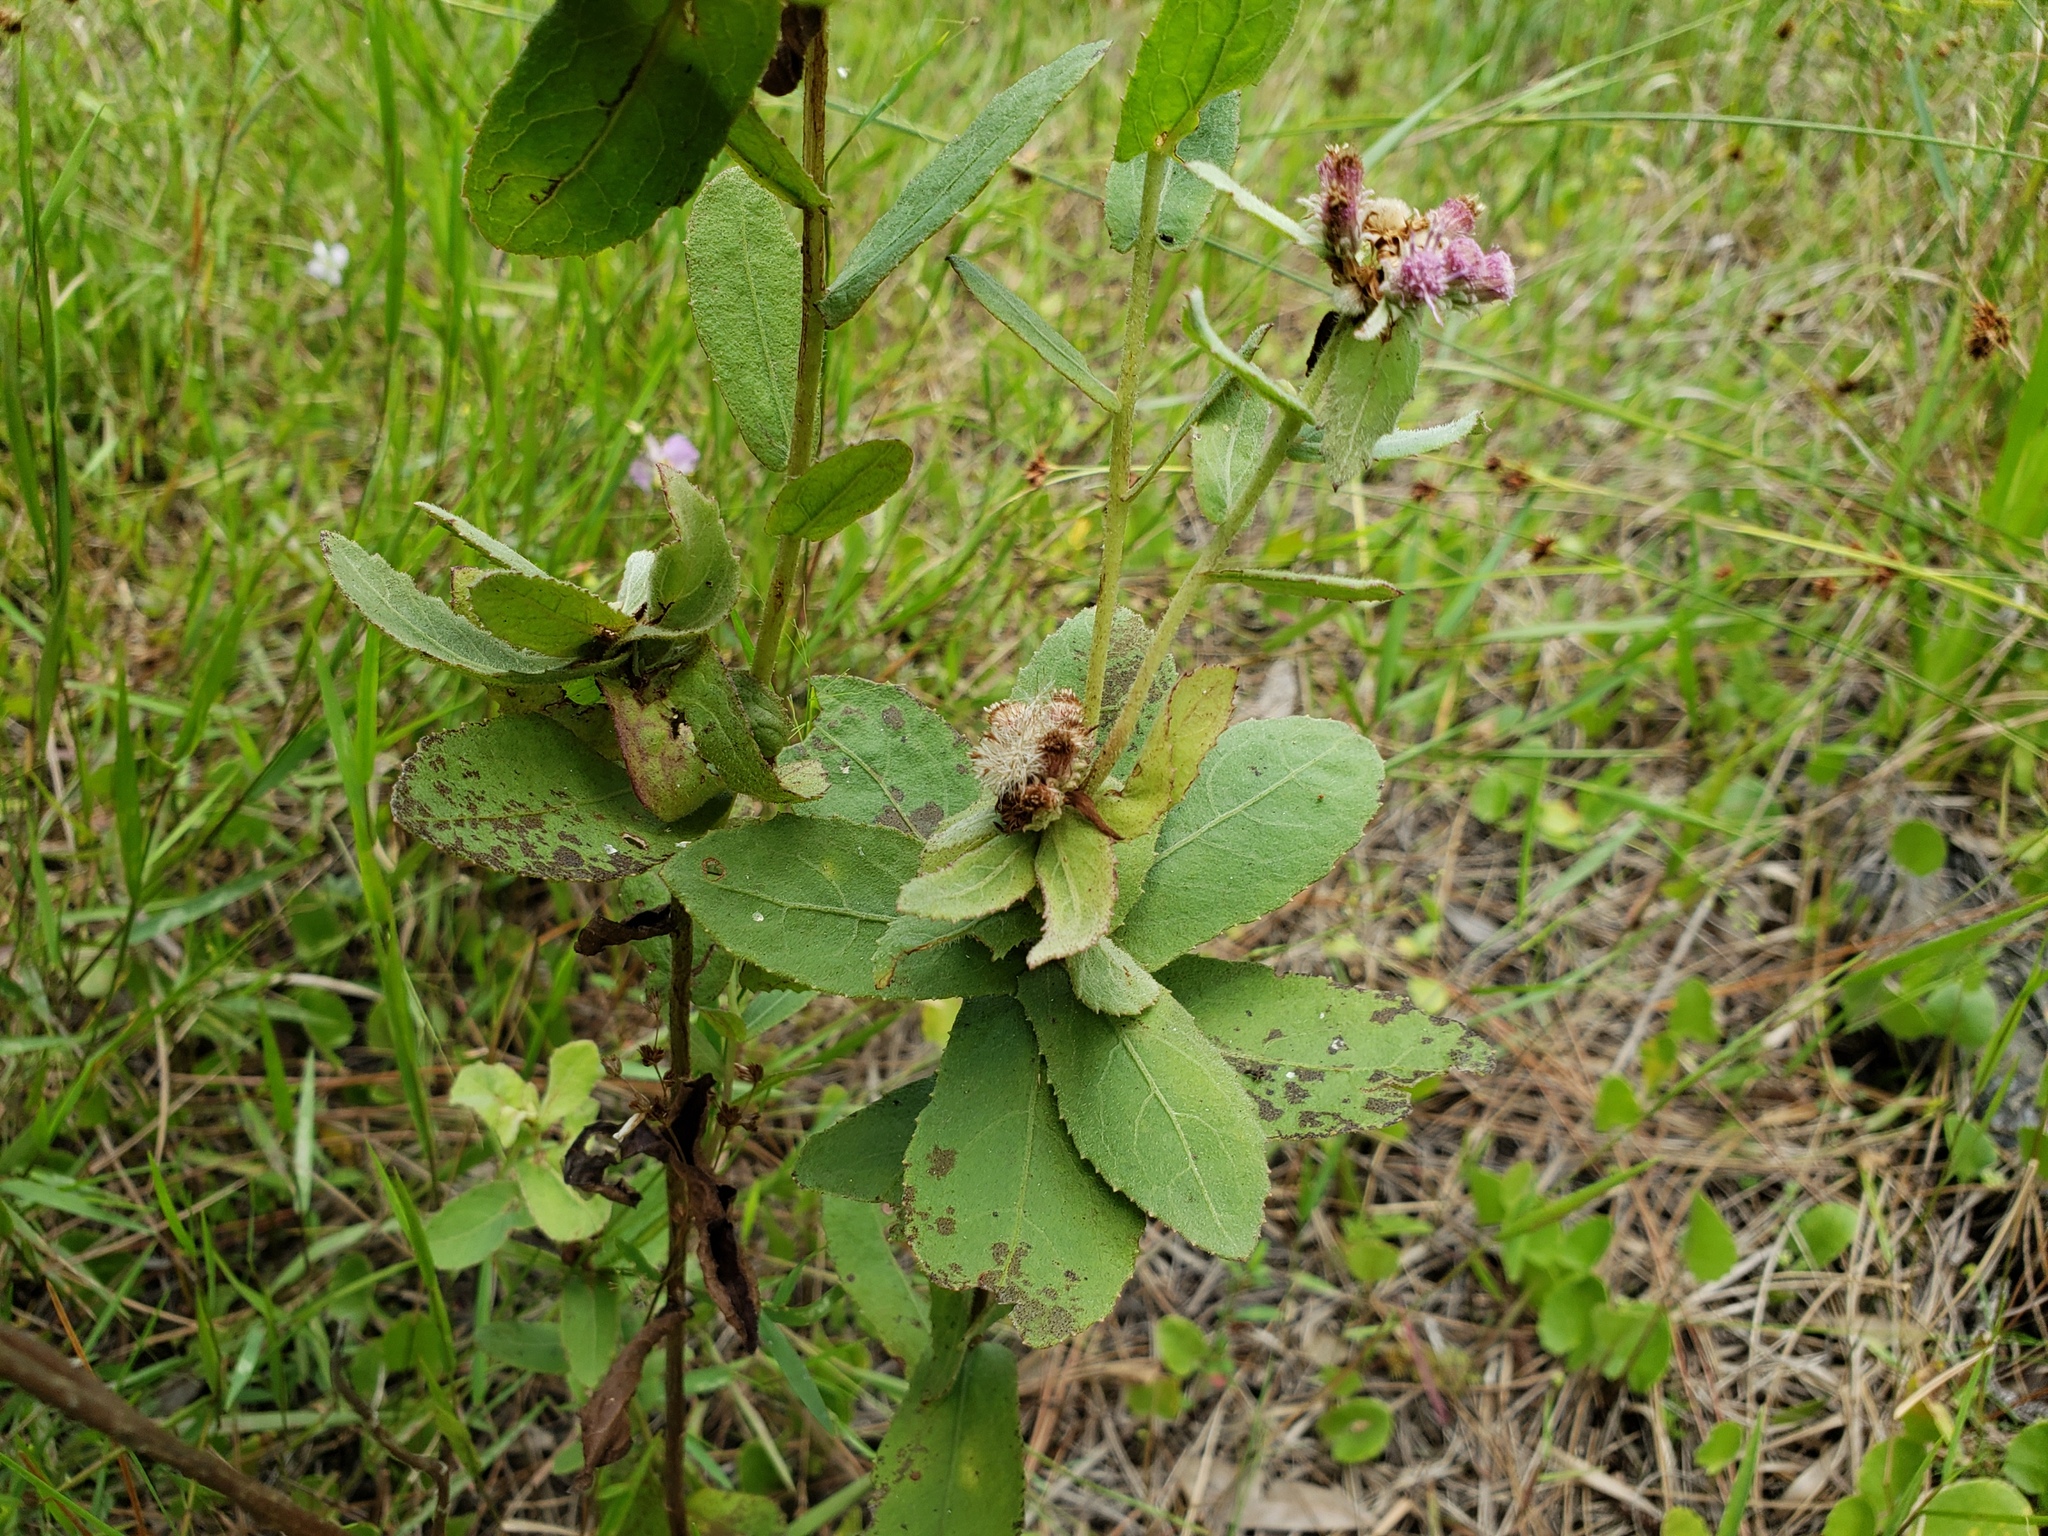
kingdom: Plantae
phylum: Tracheophyta
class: Magnoliopsida
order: Asterales
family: Asteraceae
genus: Pluchea
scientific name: Pluchea baccharis
